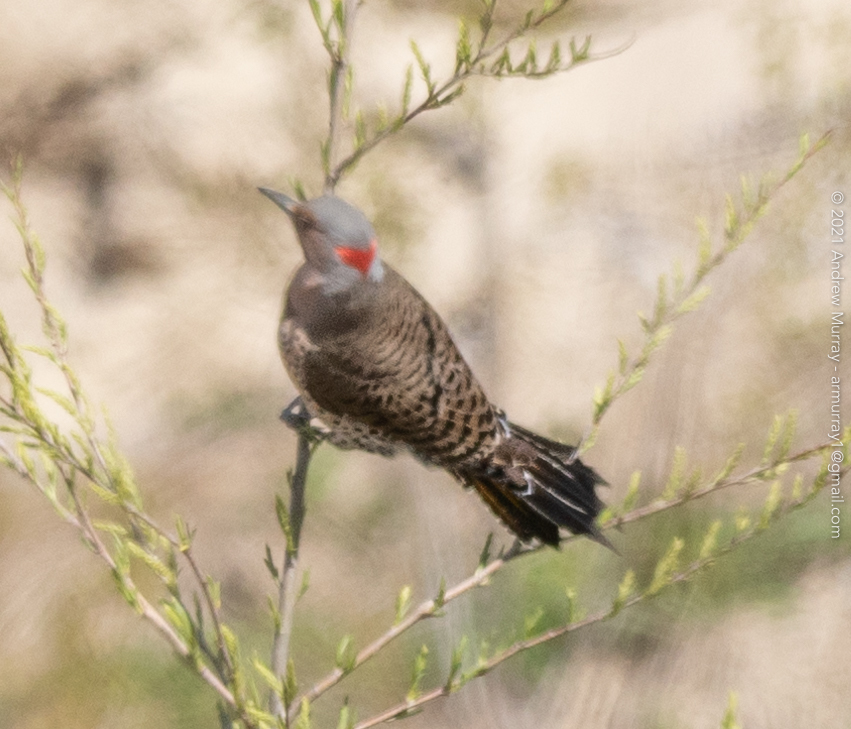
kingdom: Animalia
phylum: Chordata
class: Aves
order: Piciformes
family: Picidae
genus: Colaptes
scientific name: Colaptes auratus
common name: Northern flicker
